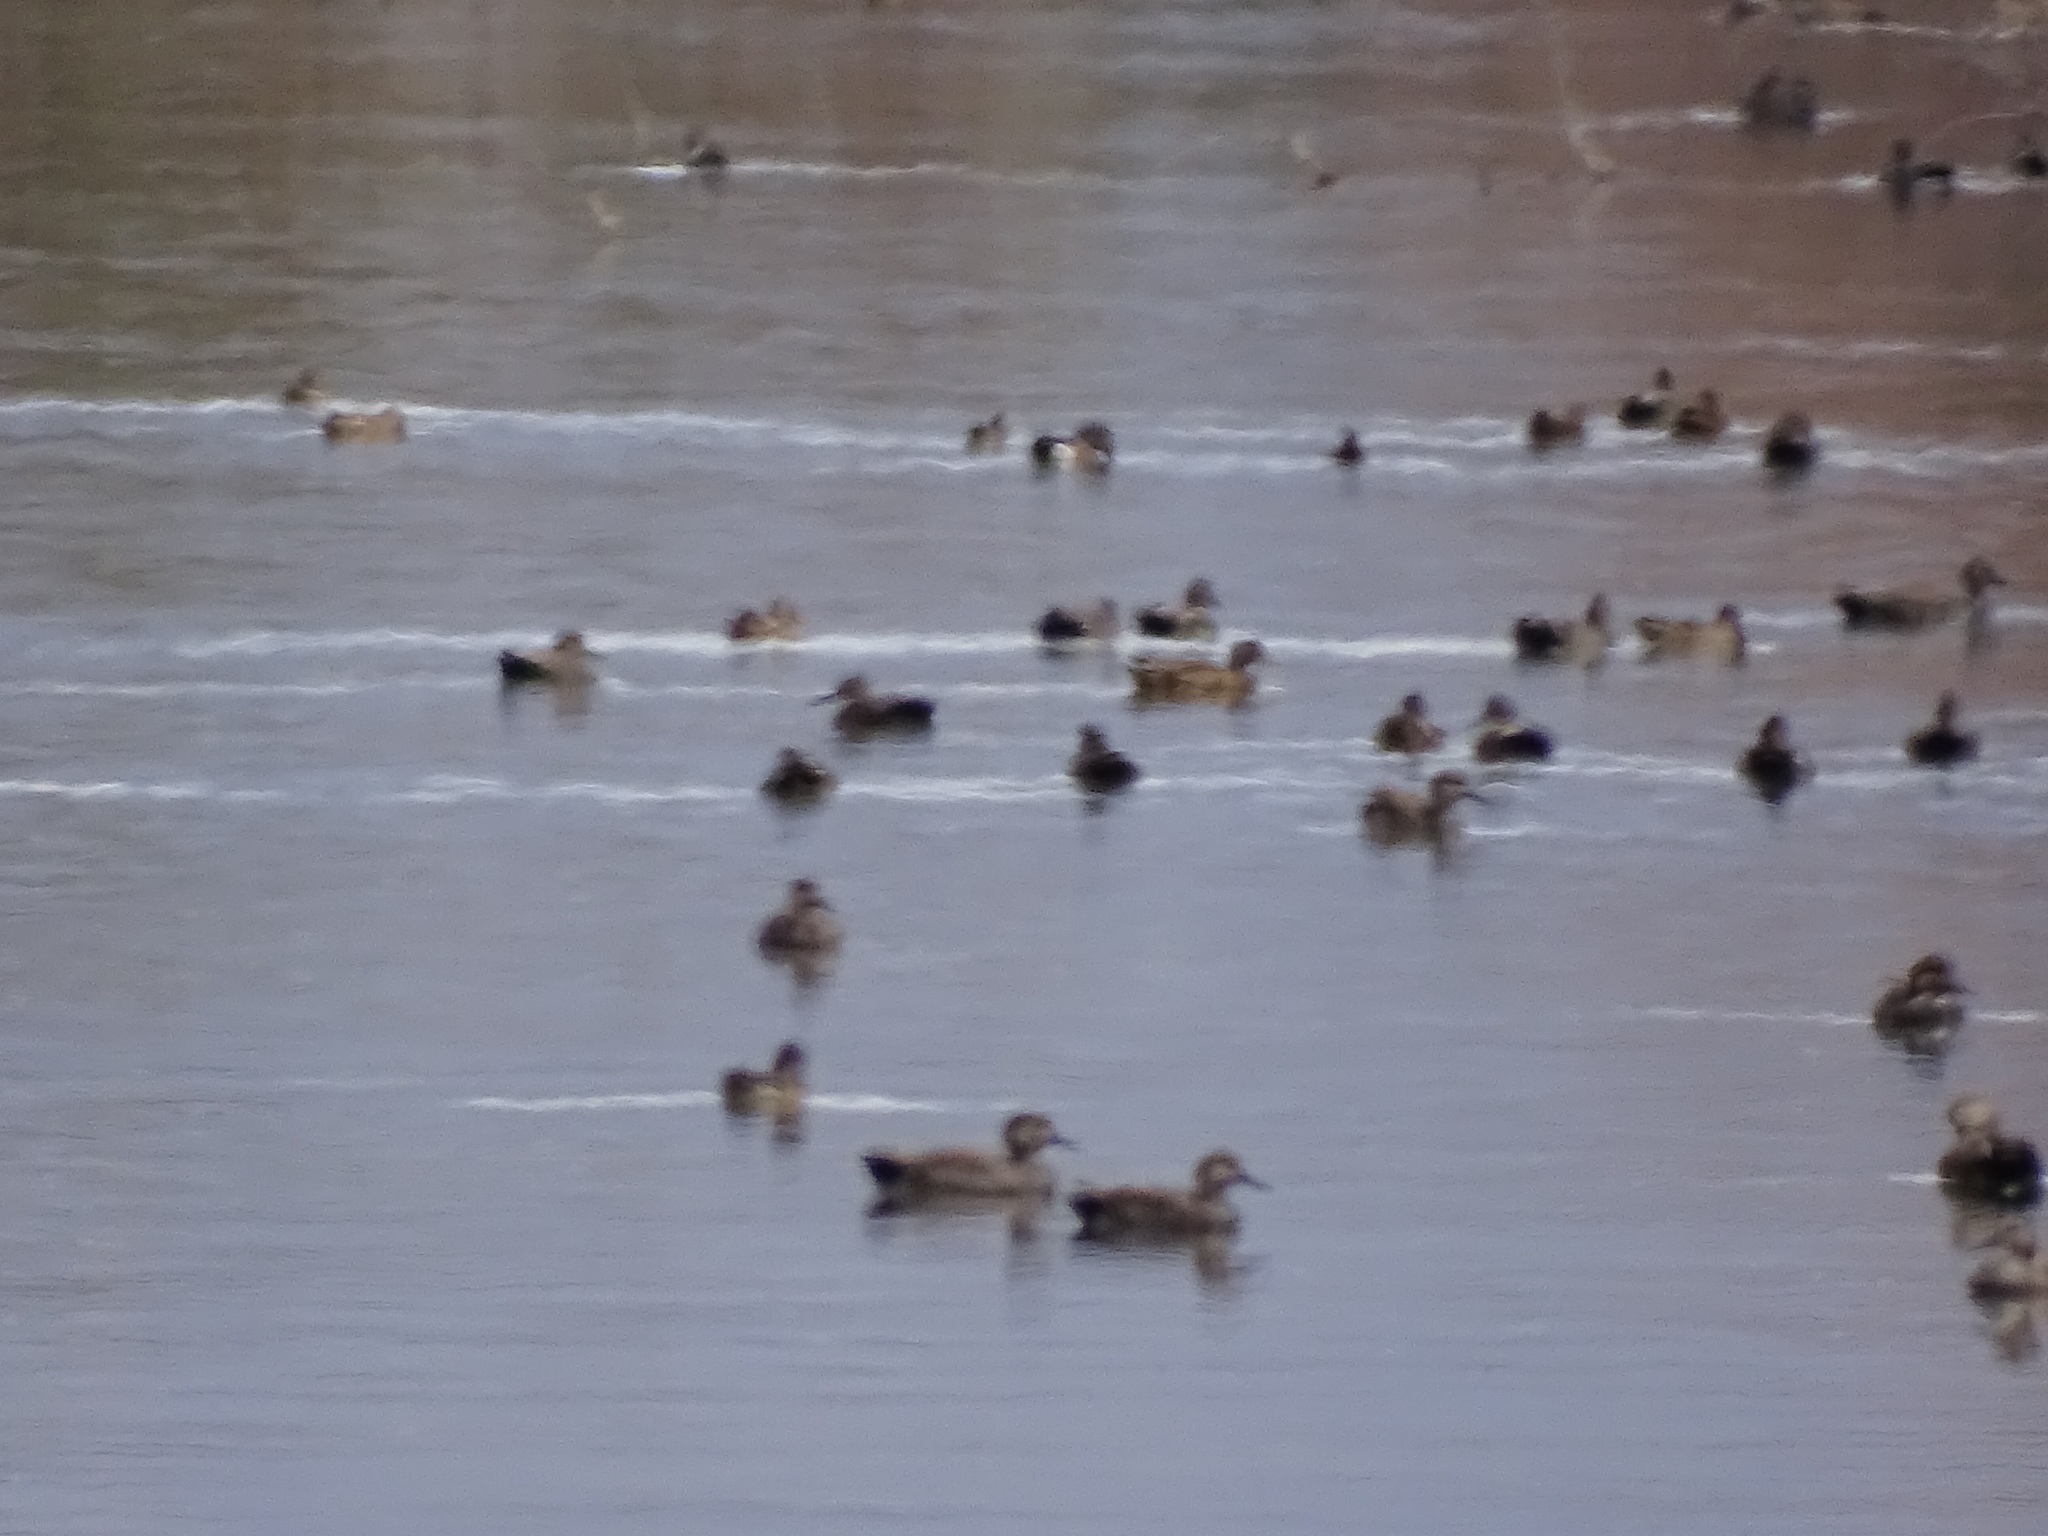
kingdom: Animalia
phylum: Chordata
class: Aves
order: Anseriformes
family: Anatidae
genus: Mareca
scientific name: Mareca strepera
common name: Gadwall
